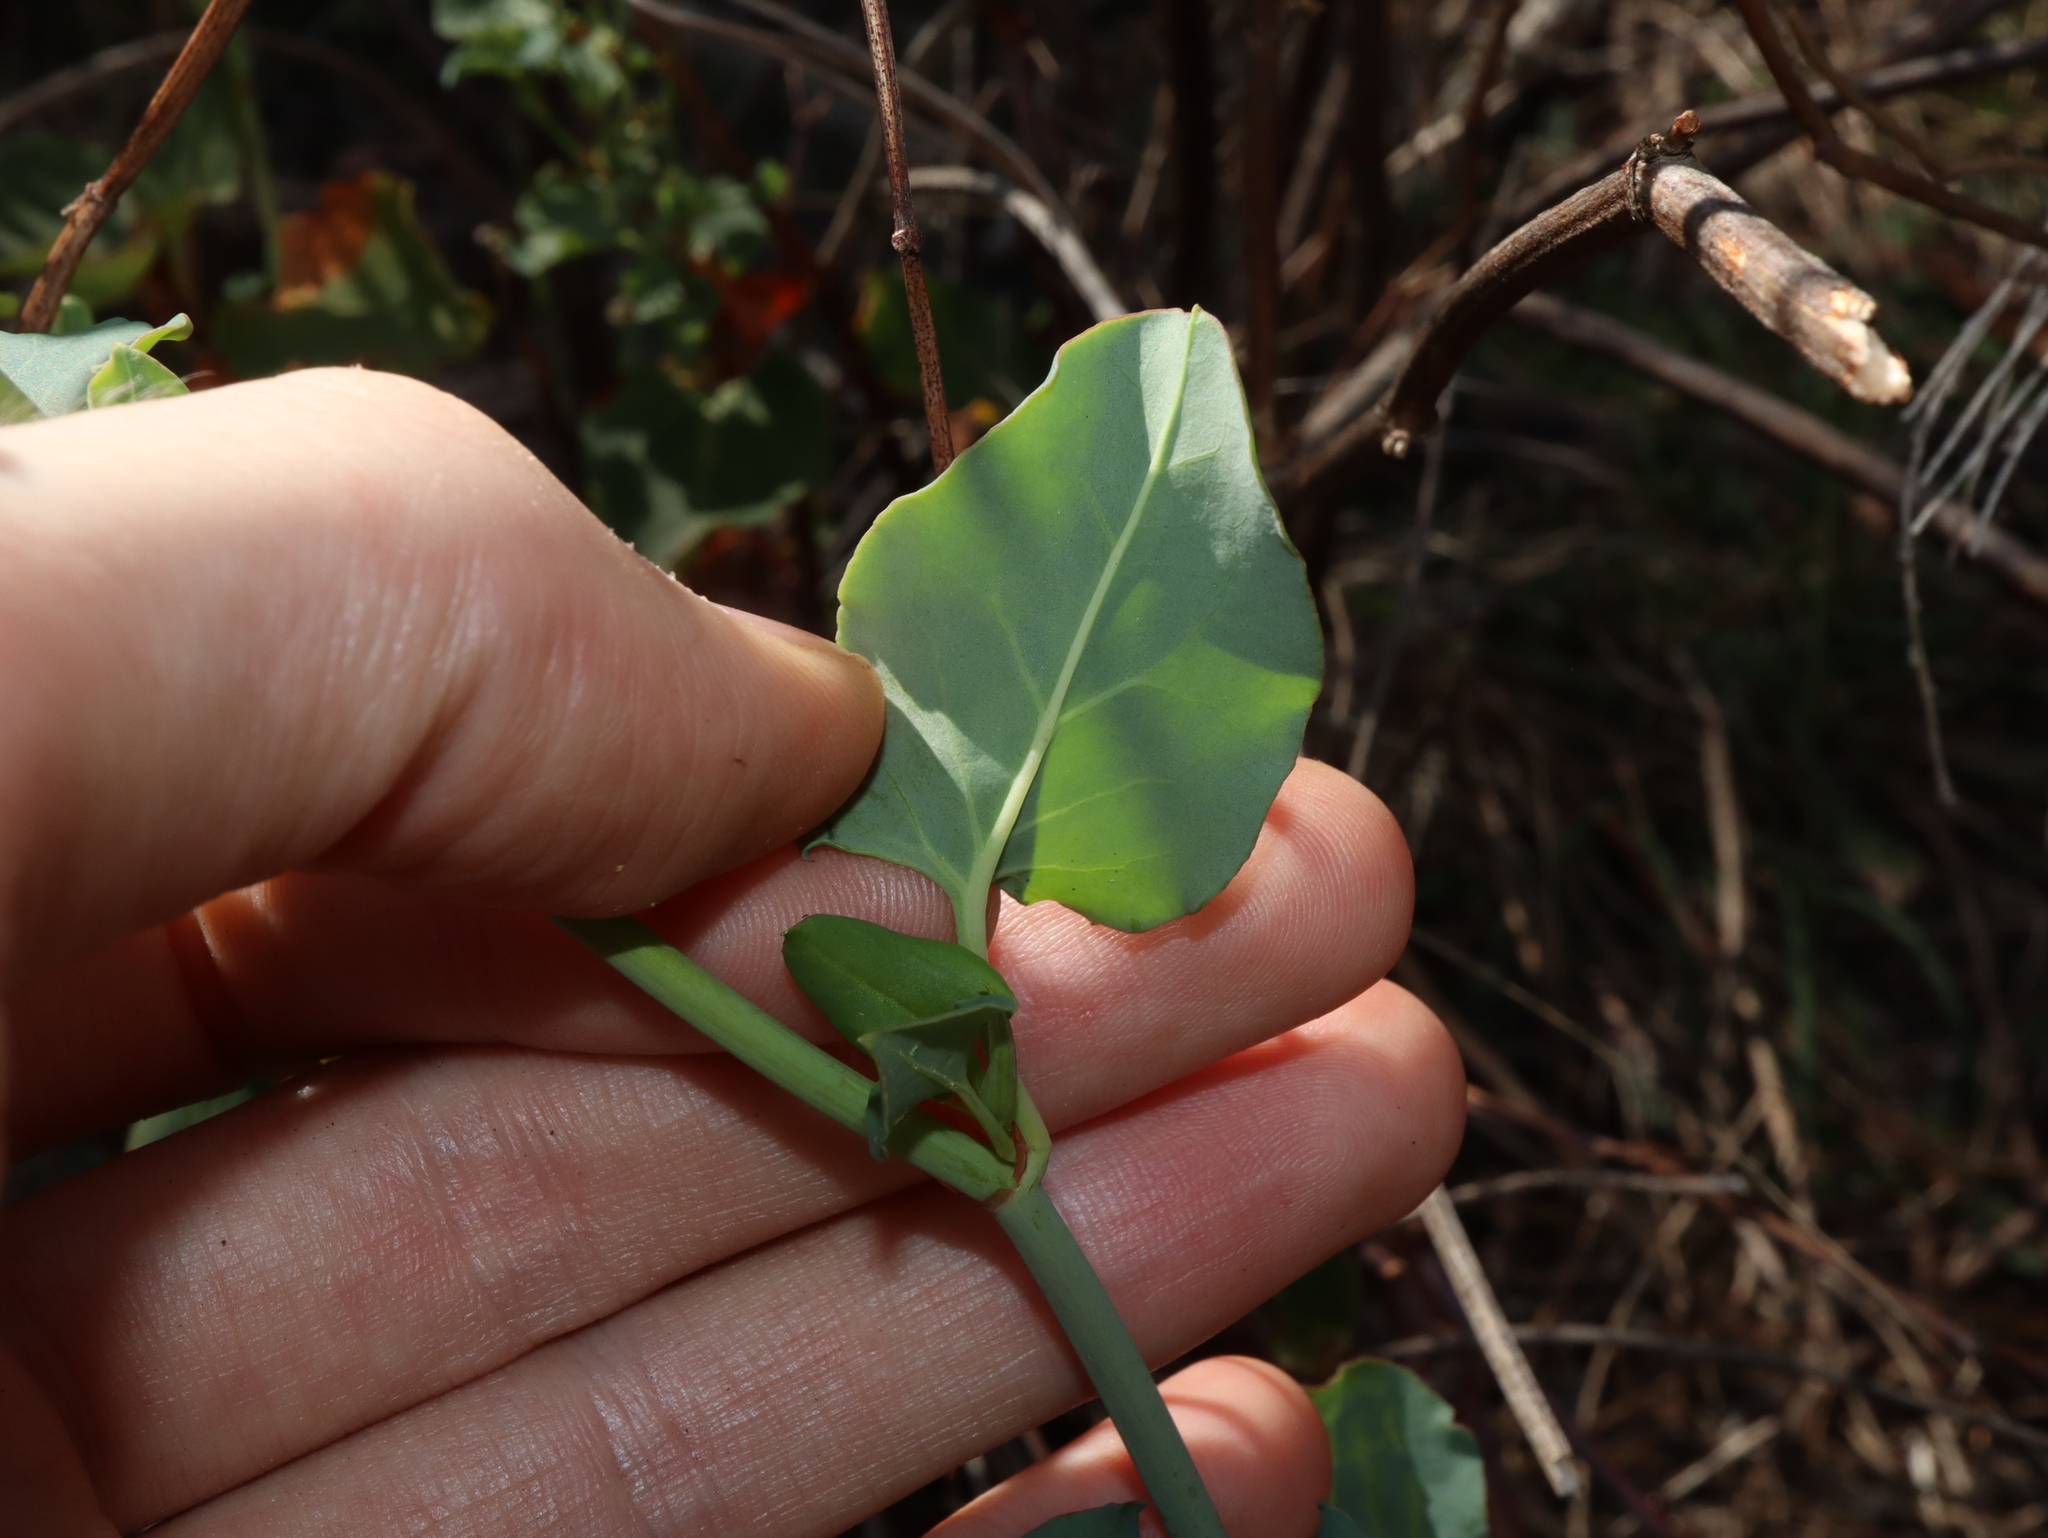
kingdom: Plantae
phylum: Tracheophyta
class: Magnoliopsida
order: Caryophyllales
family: Polygonaceae
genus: Muehlenbeckia
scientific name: Muehlenbeckia rhyticarya
